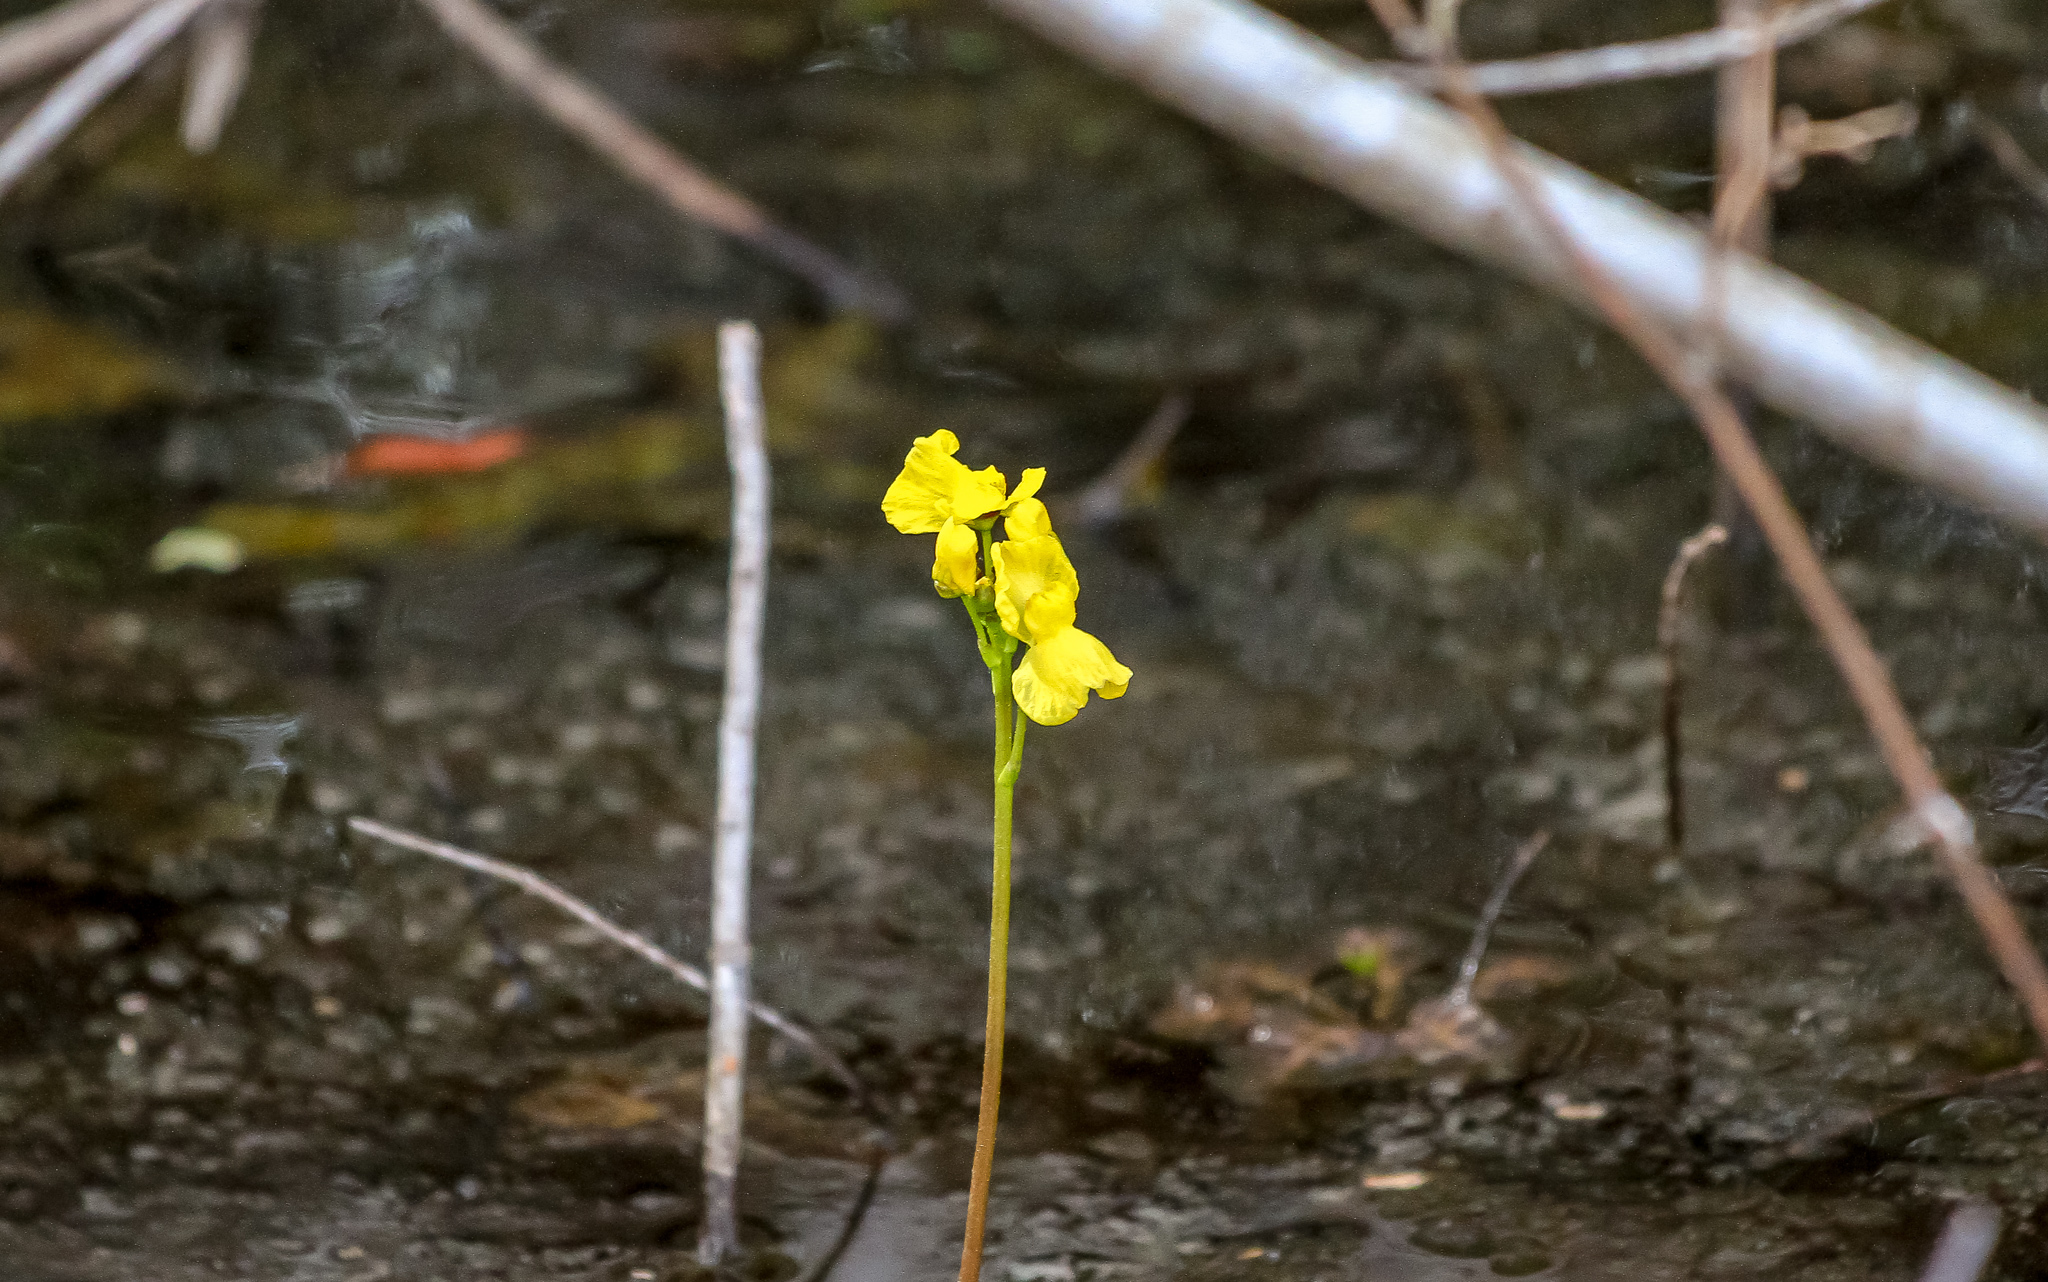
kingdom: Plantae
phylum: Tracheophyta
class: Magnoliopsida
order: Lamiales
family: Lentibulariaceae
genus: Utricularia
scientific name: Utricularia inflata
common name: Floating bladderwort
